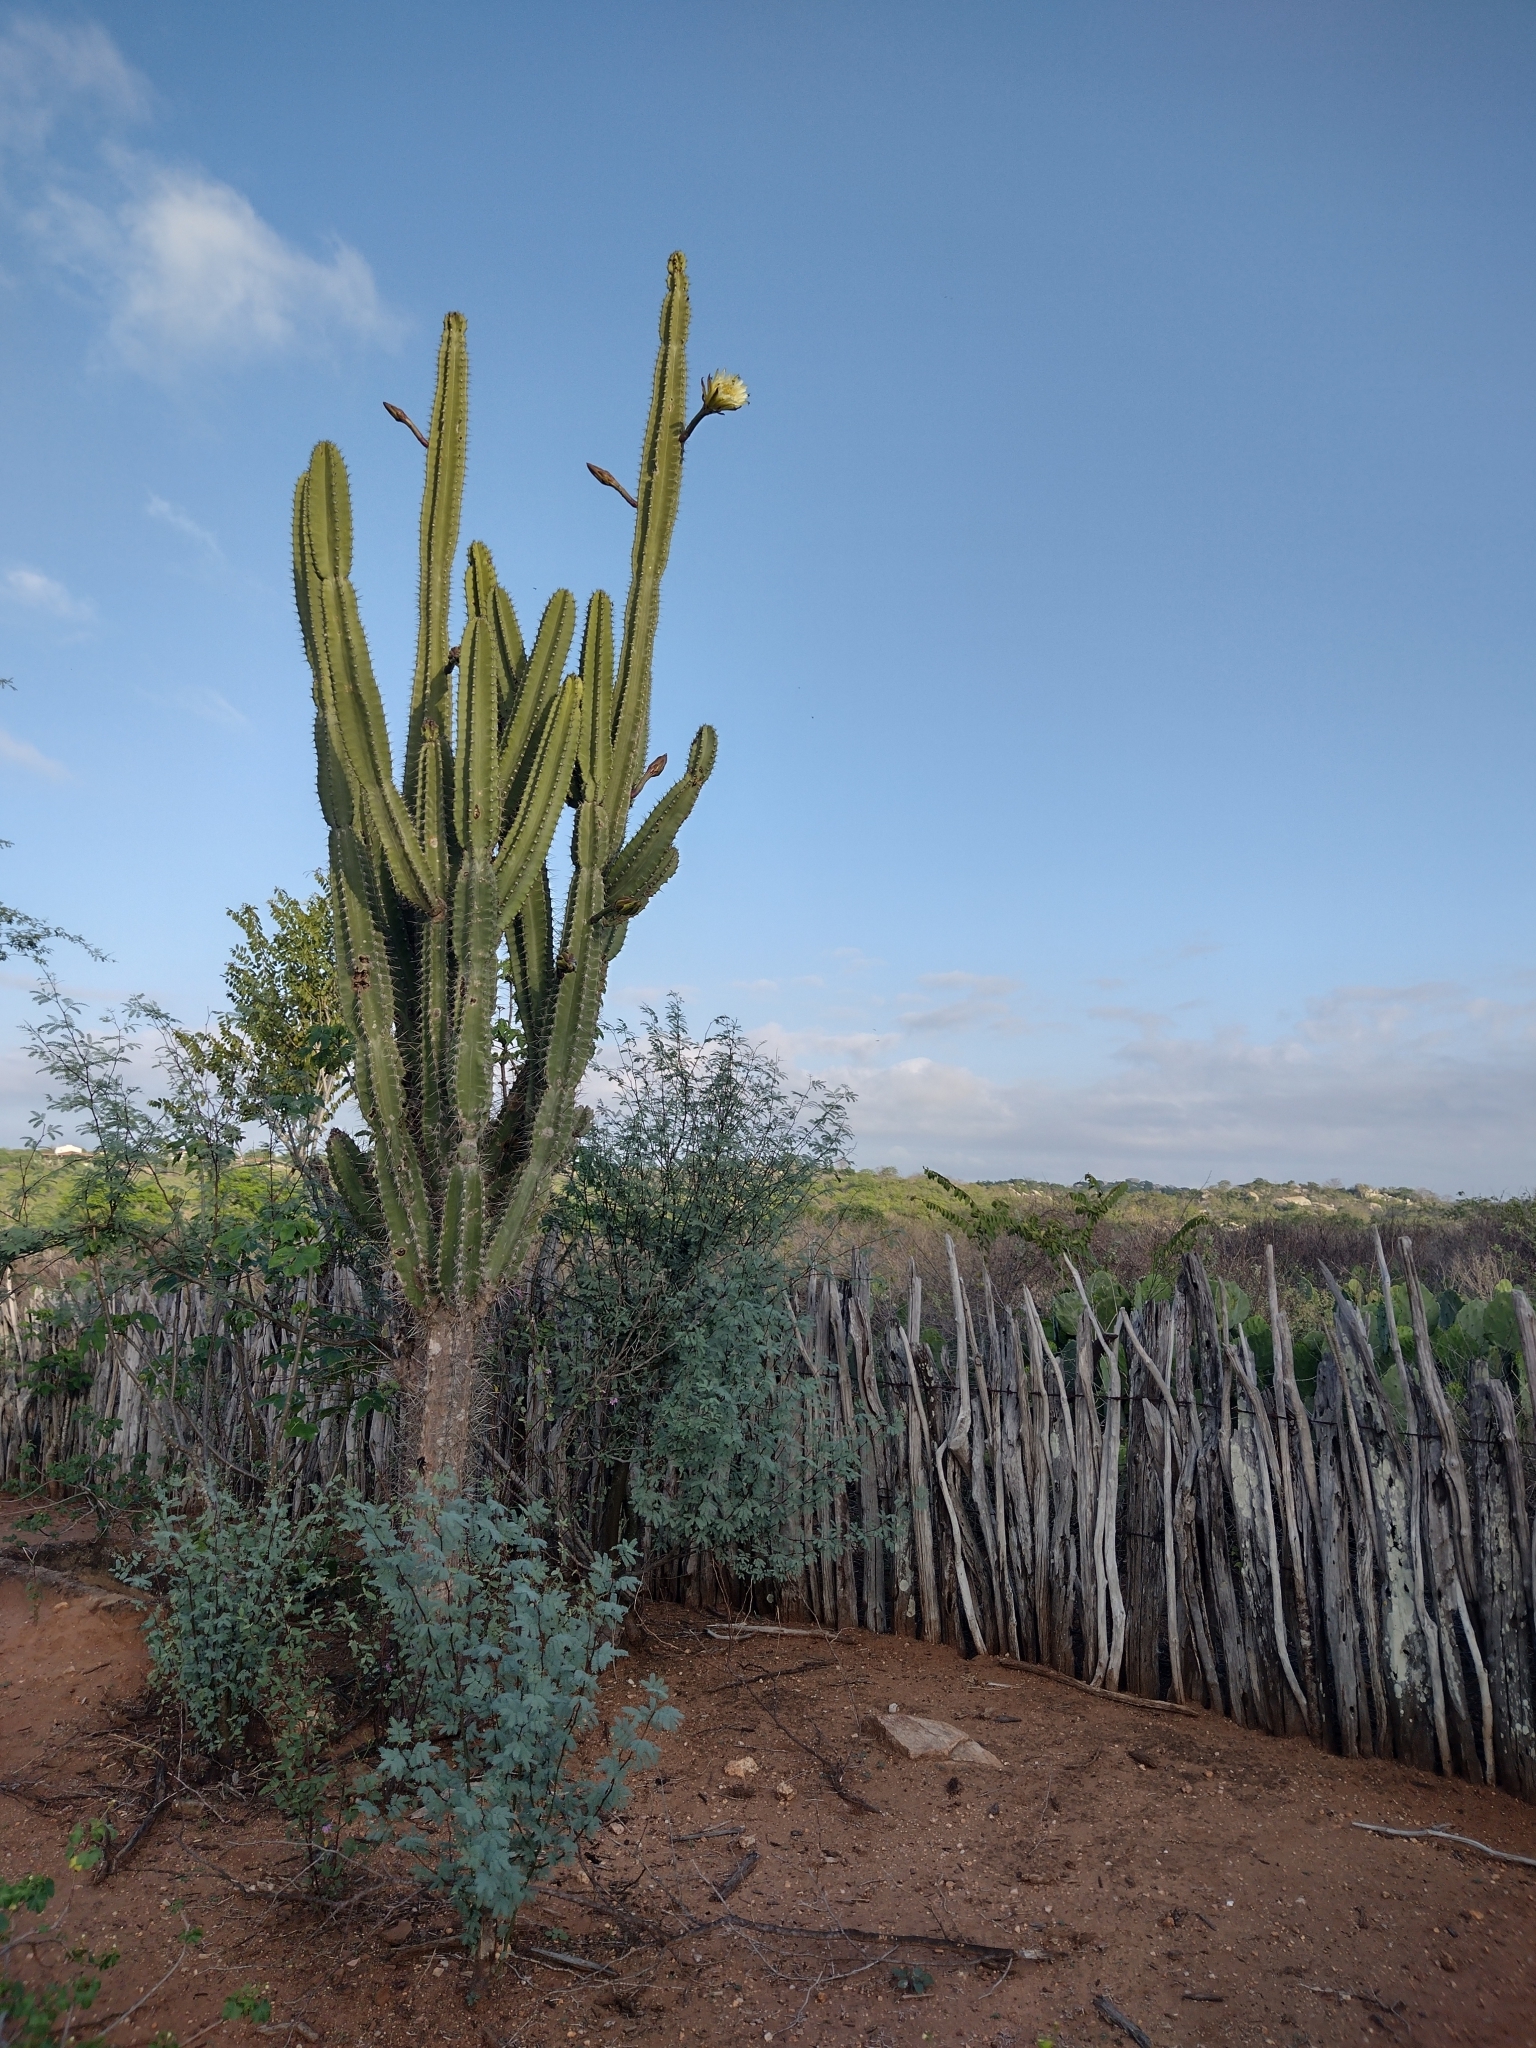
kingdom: Plantae
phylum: Tracheophyta
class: Magnoliopsida
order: Caryophyllales
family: Cactaceae
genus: Cereus
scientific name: Cereus jamacaru
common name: Queen-of-the-night
